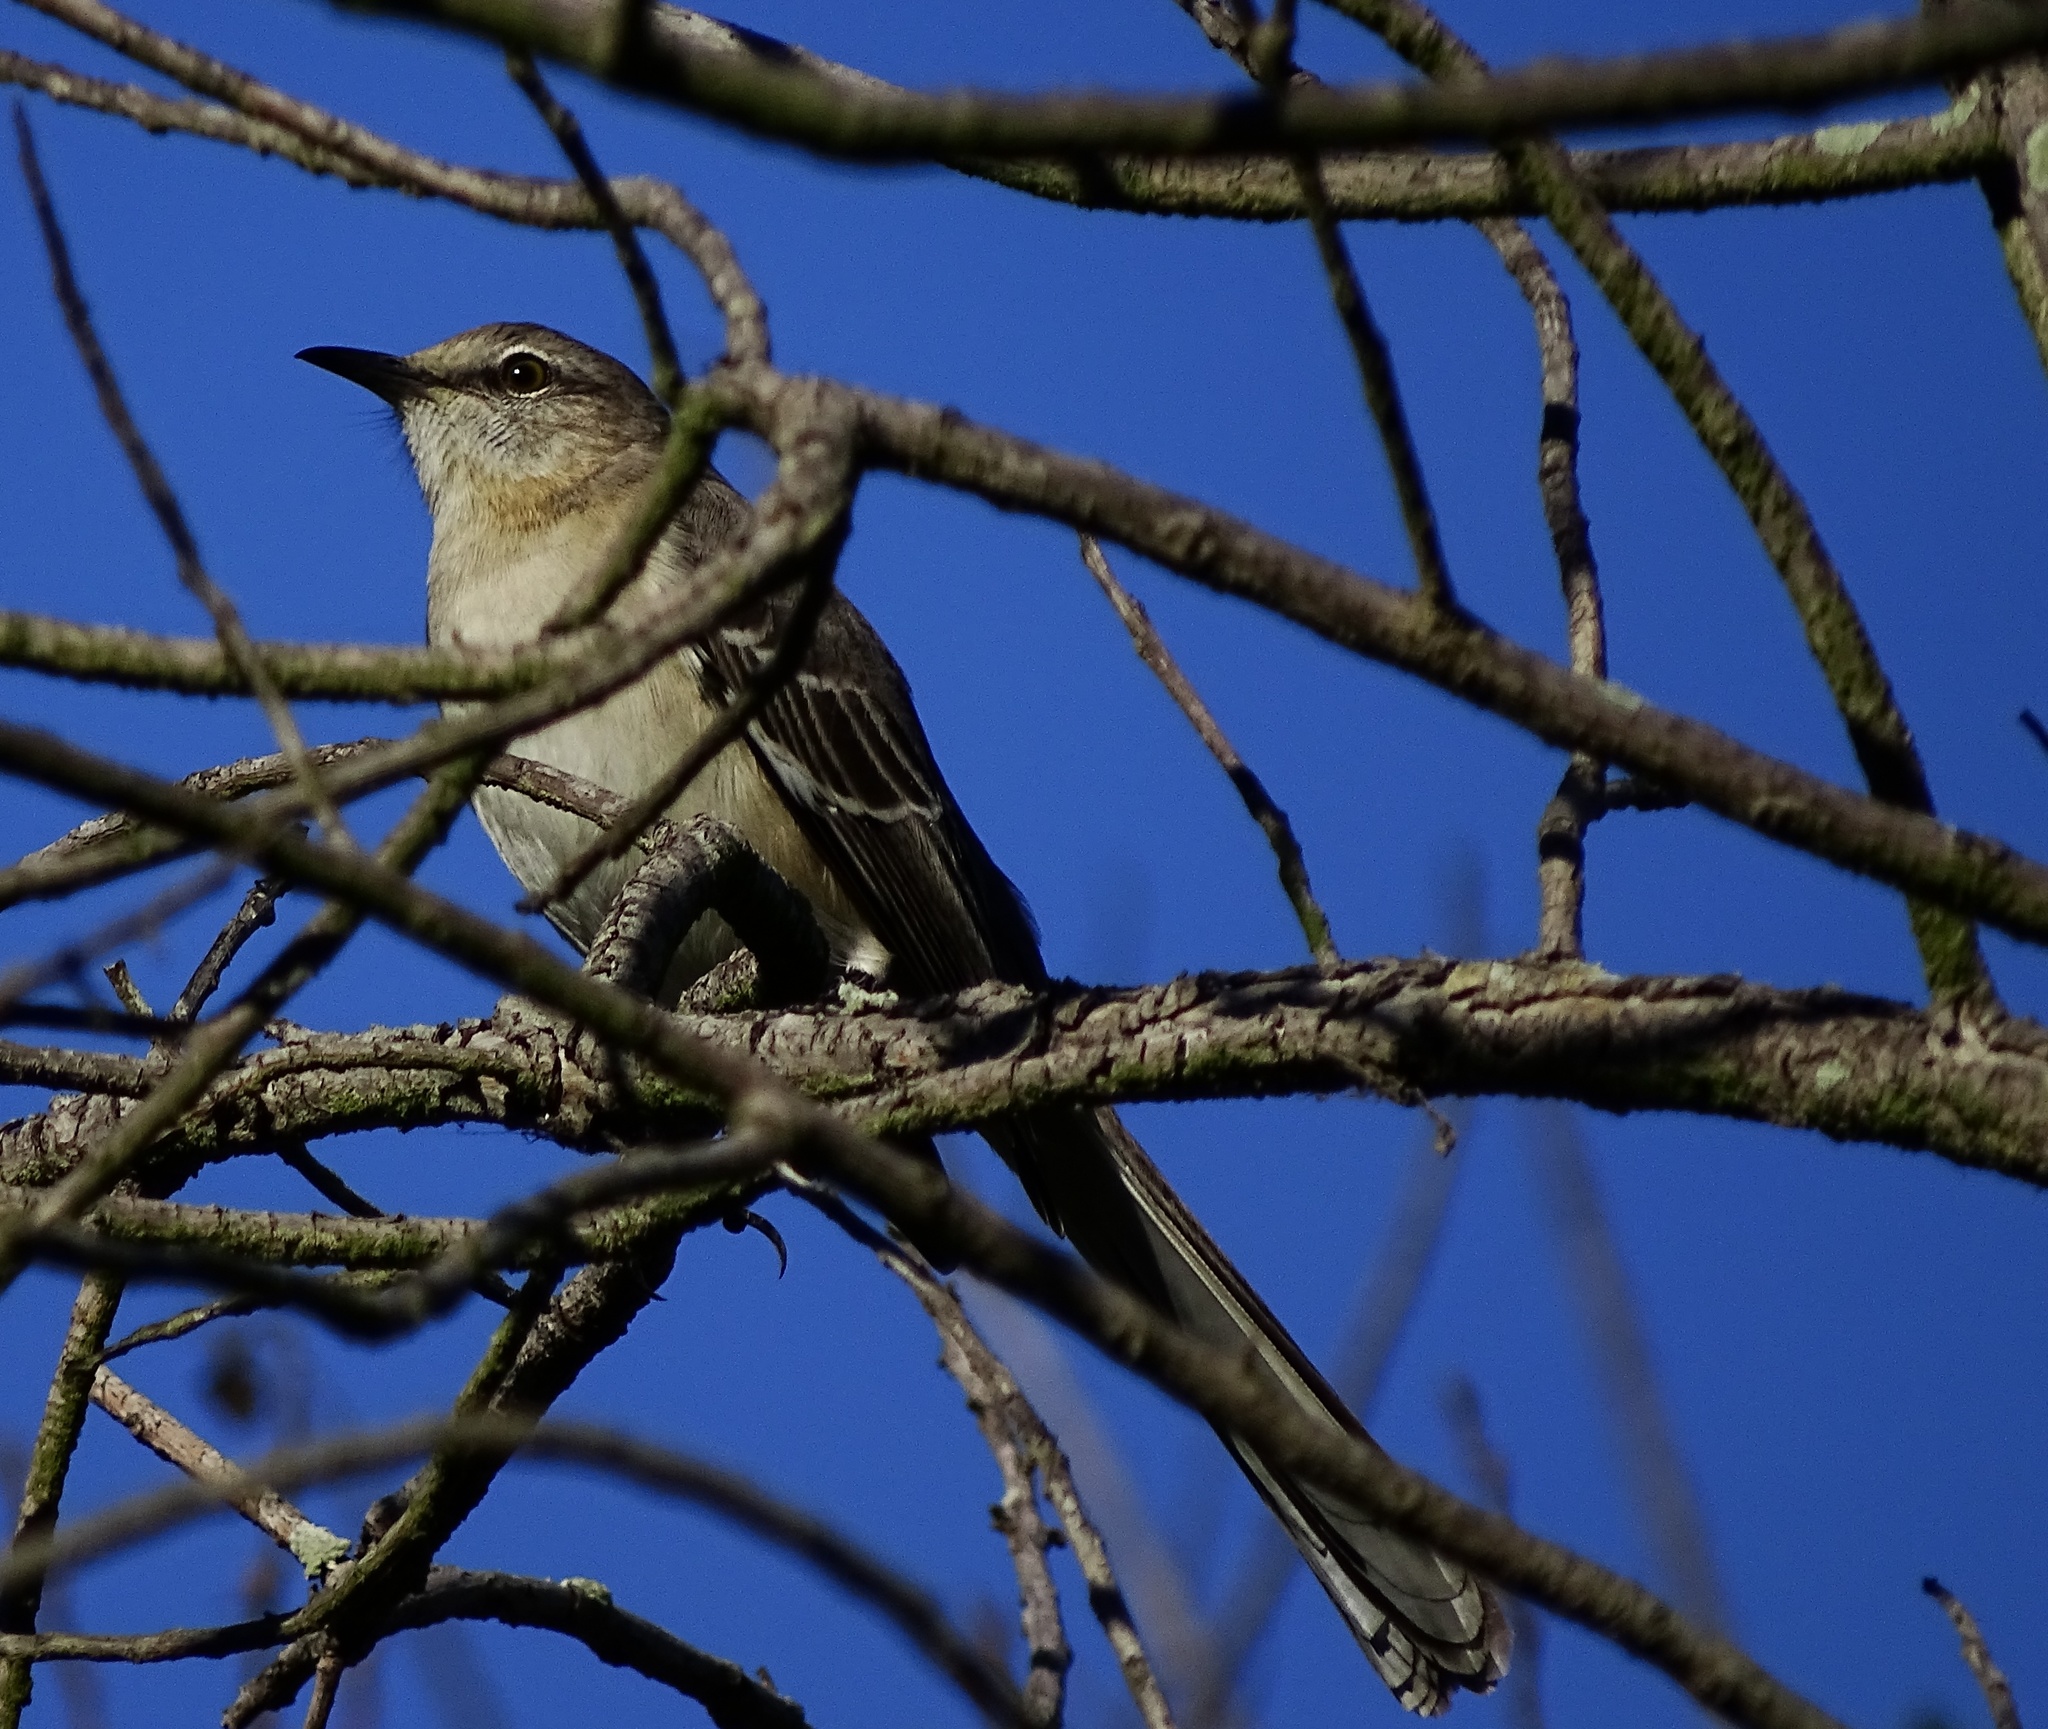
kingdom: Animalia
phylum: Chordata
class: Aves
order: Passeriformes
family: Mimidae
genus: Mimus
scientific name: Mimus polyglottos
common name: Northern mockingbird
